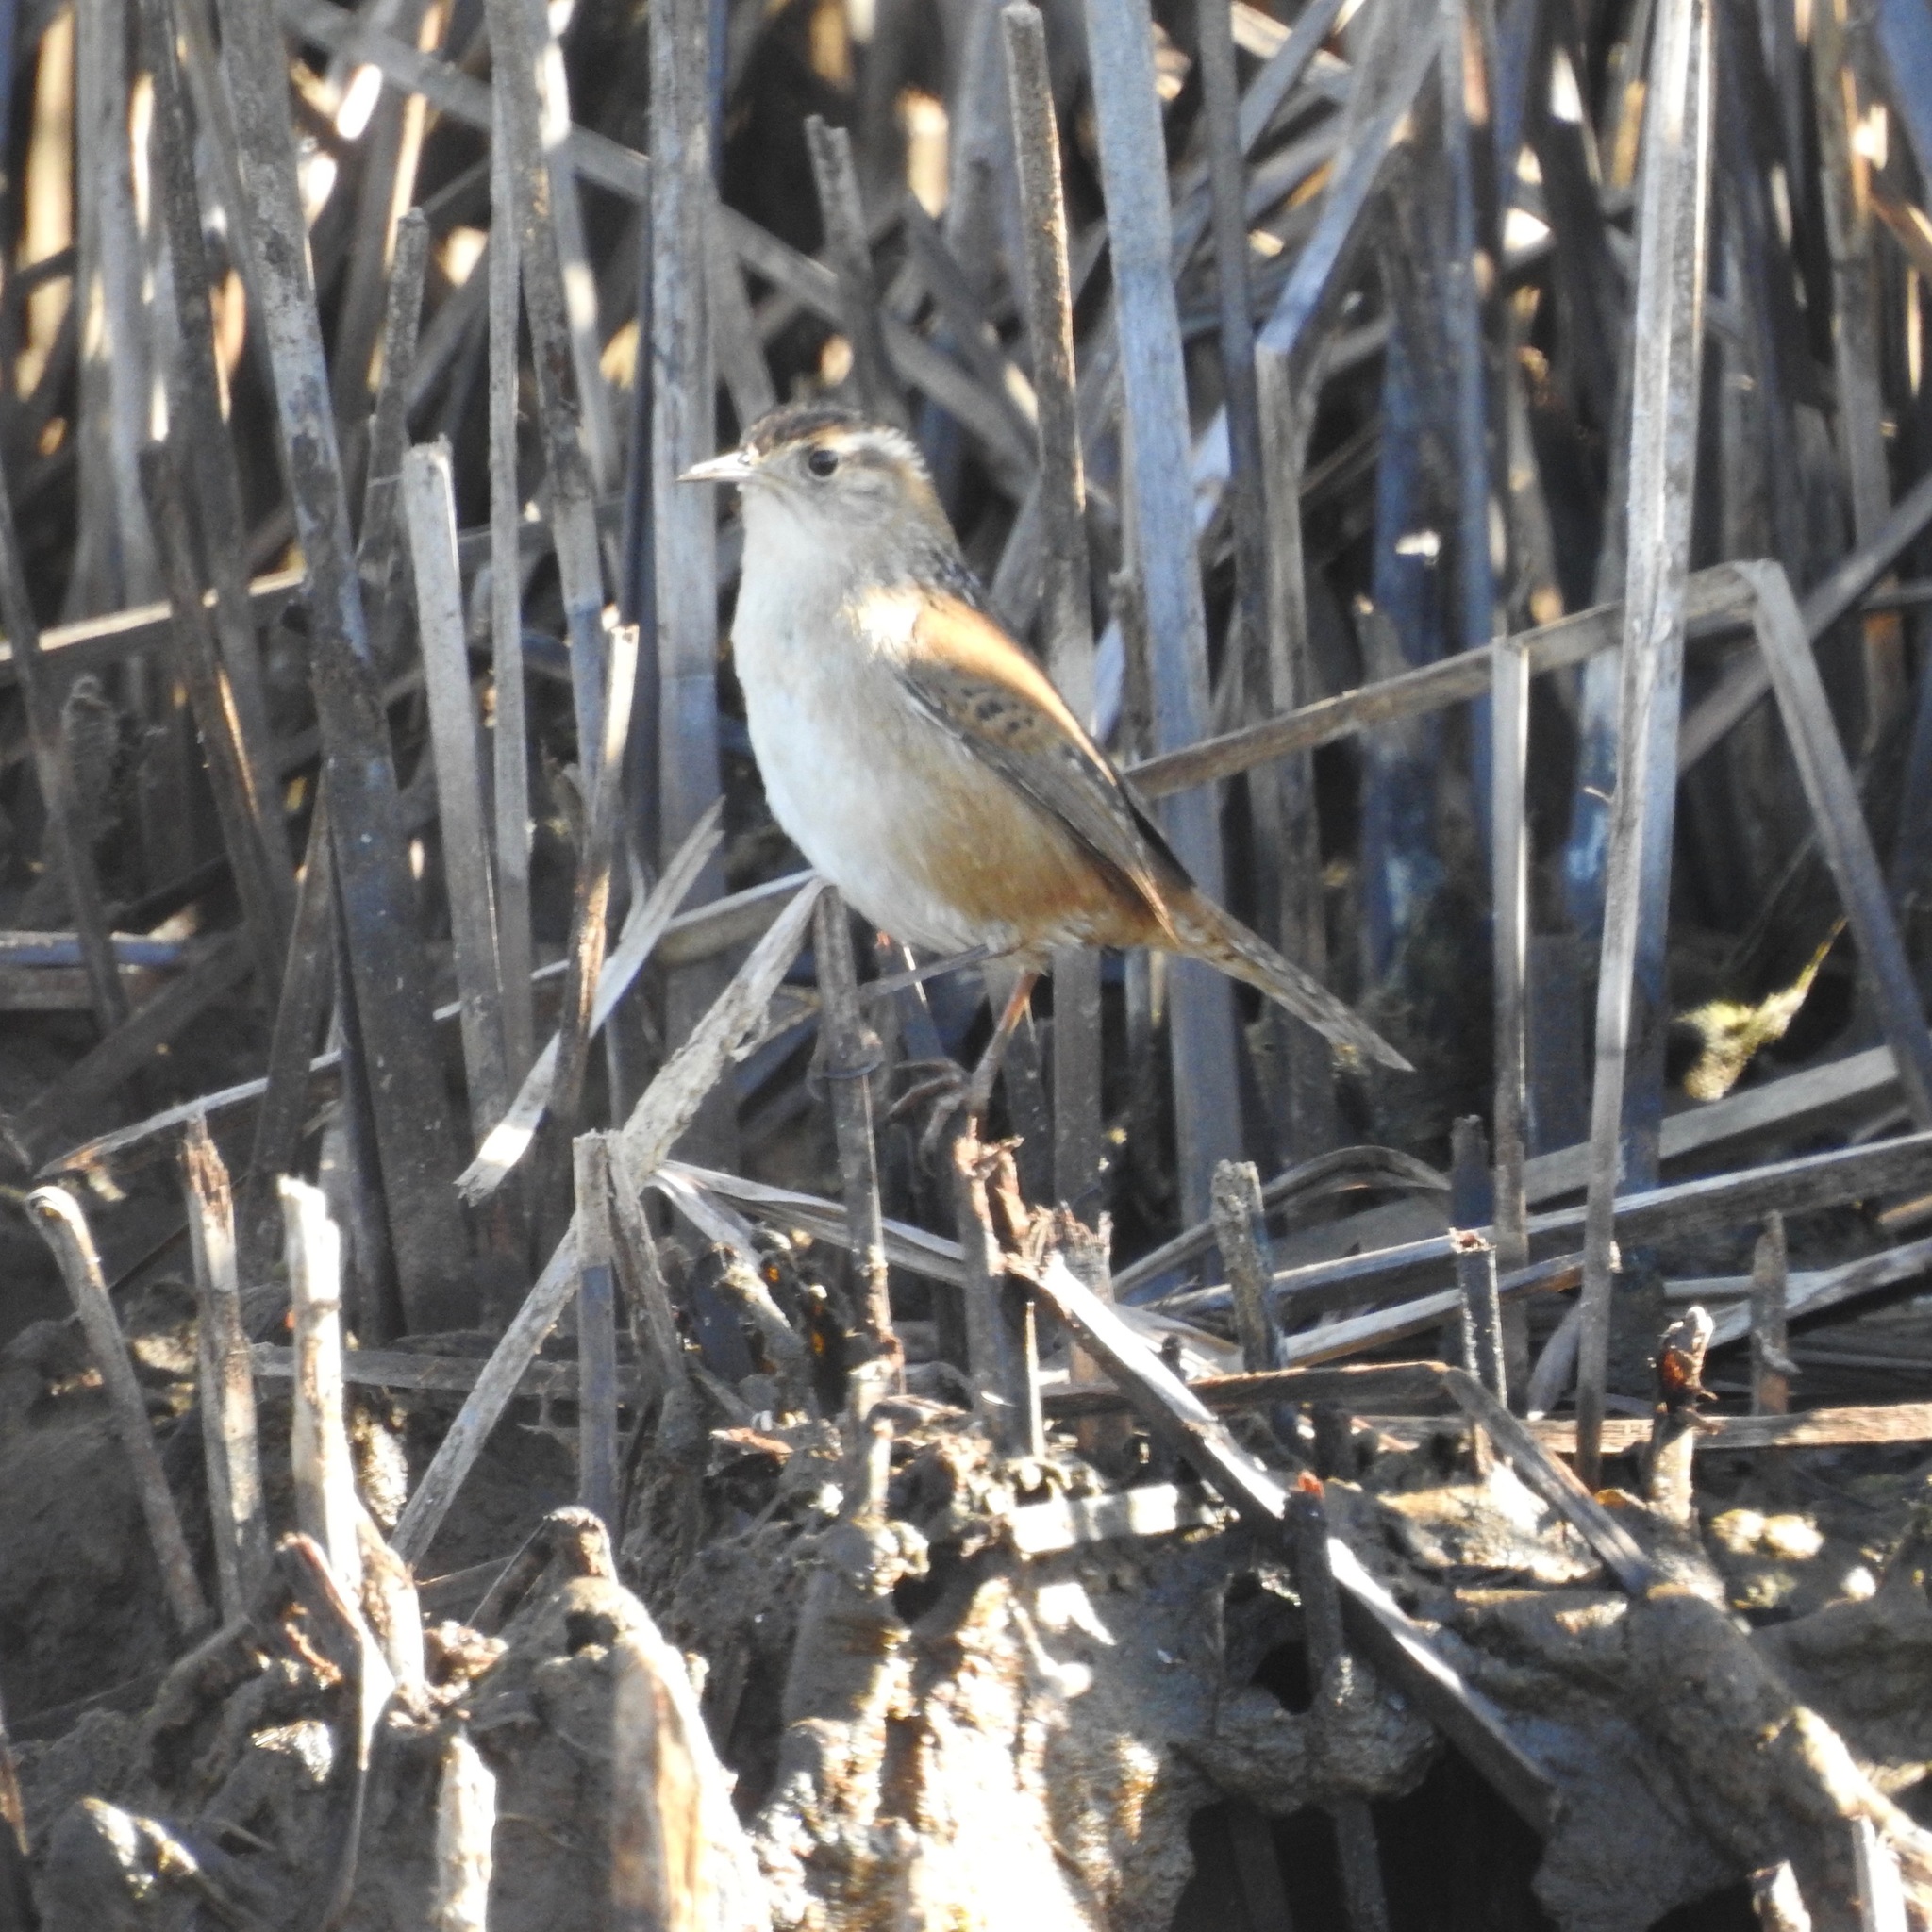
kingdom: Animalia
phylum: Chordata
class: Aves
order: Passeriformes
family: Troglodytidae
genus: Cistothorus
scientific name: Cistothorus palustris
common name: Marsh wren
